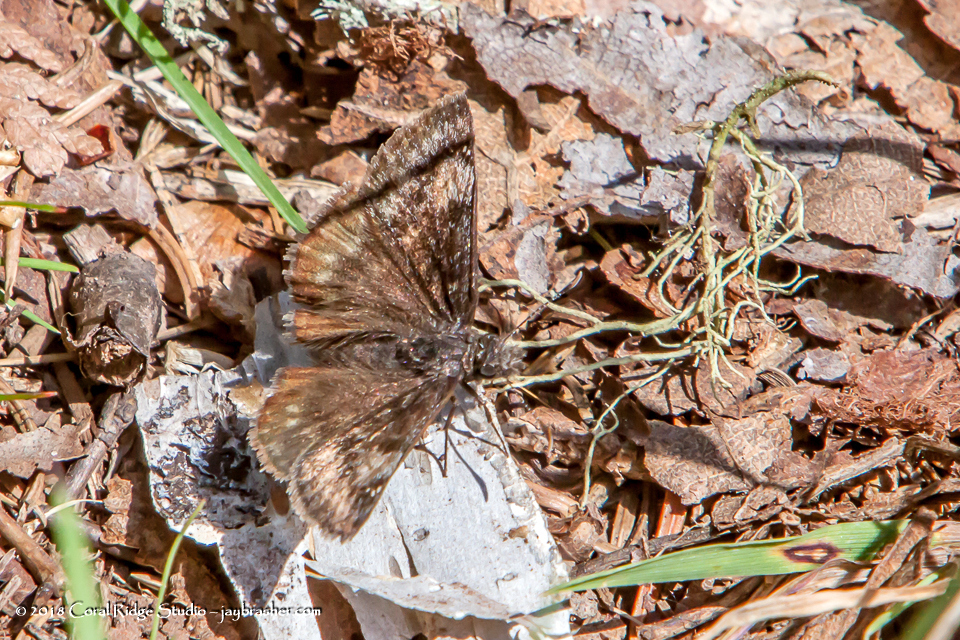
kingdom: Animalia
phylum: Arthropoda
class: Insecta
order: Lepidoptera
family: Hesperiidae
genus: Erynnis
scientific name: Erynnis lucilius
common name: Columbine duskywing
